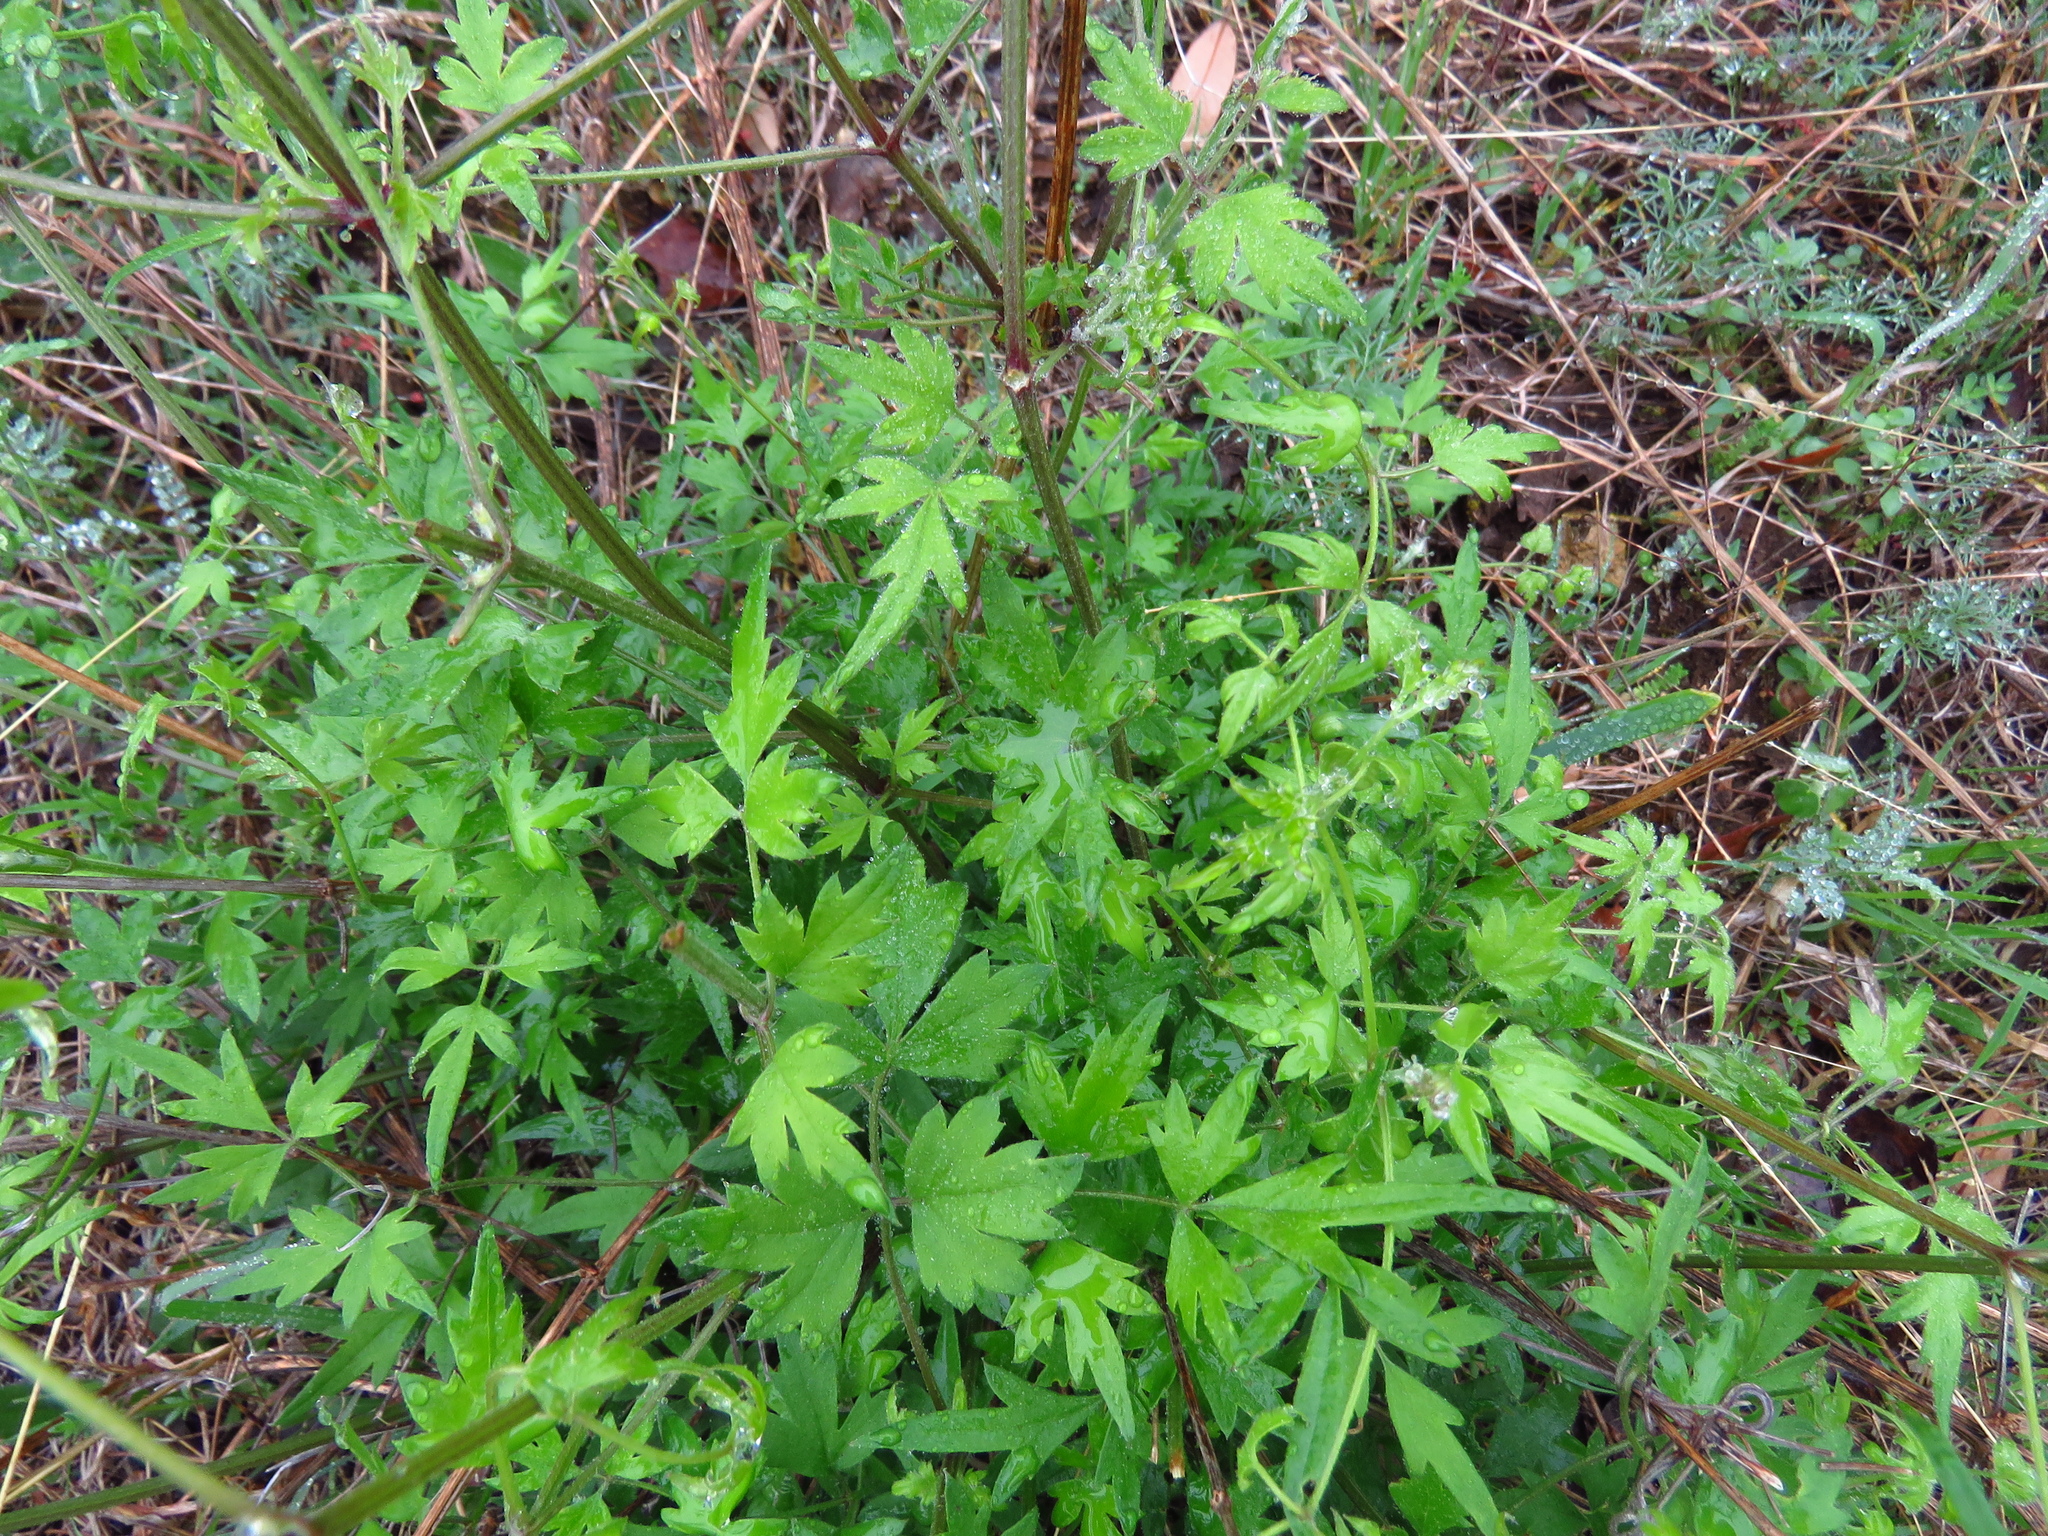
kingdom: Plantae
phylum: Tracheophyta
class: Magnoliopsida
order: Ranunculales
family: Ranunculaceae
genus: Clematis
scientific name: Clematis drummondii
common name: Texas virgin's bower
